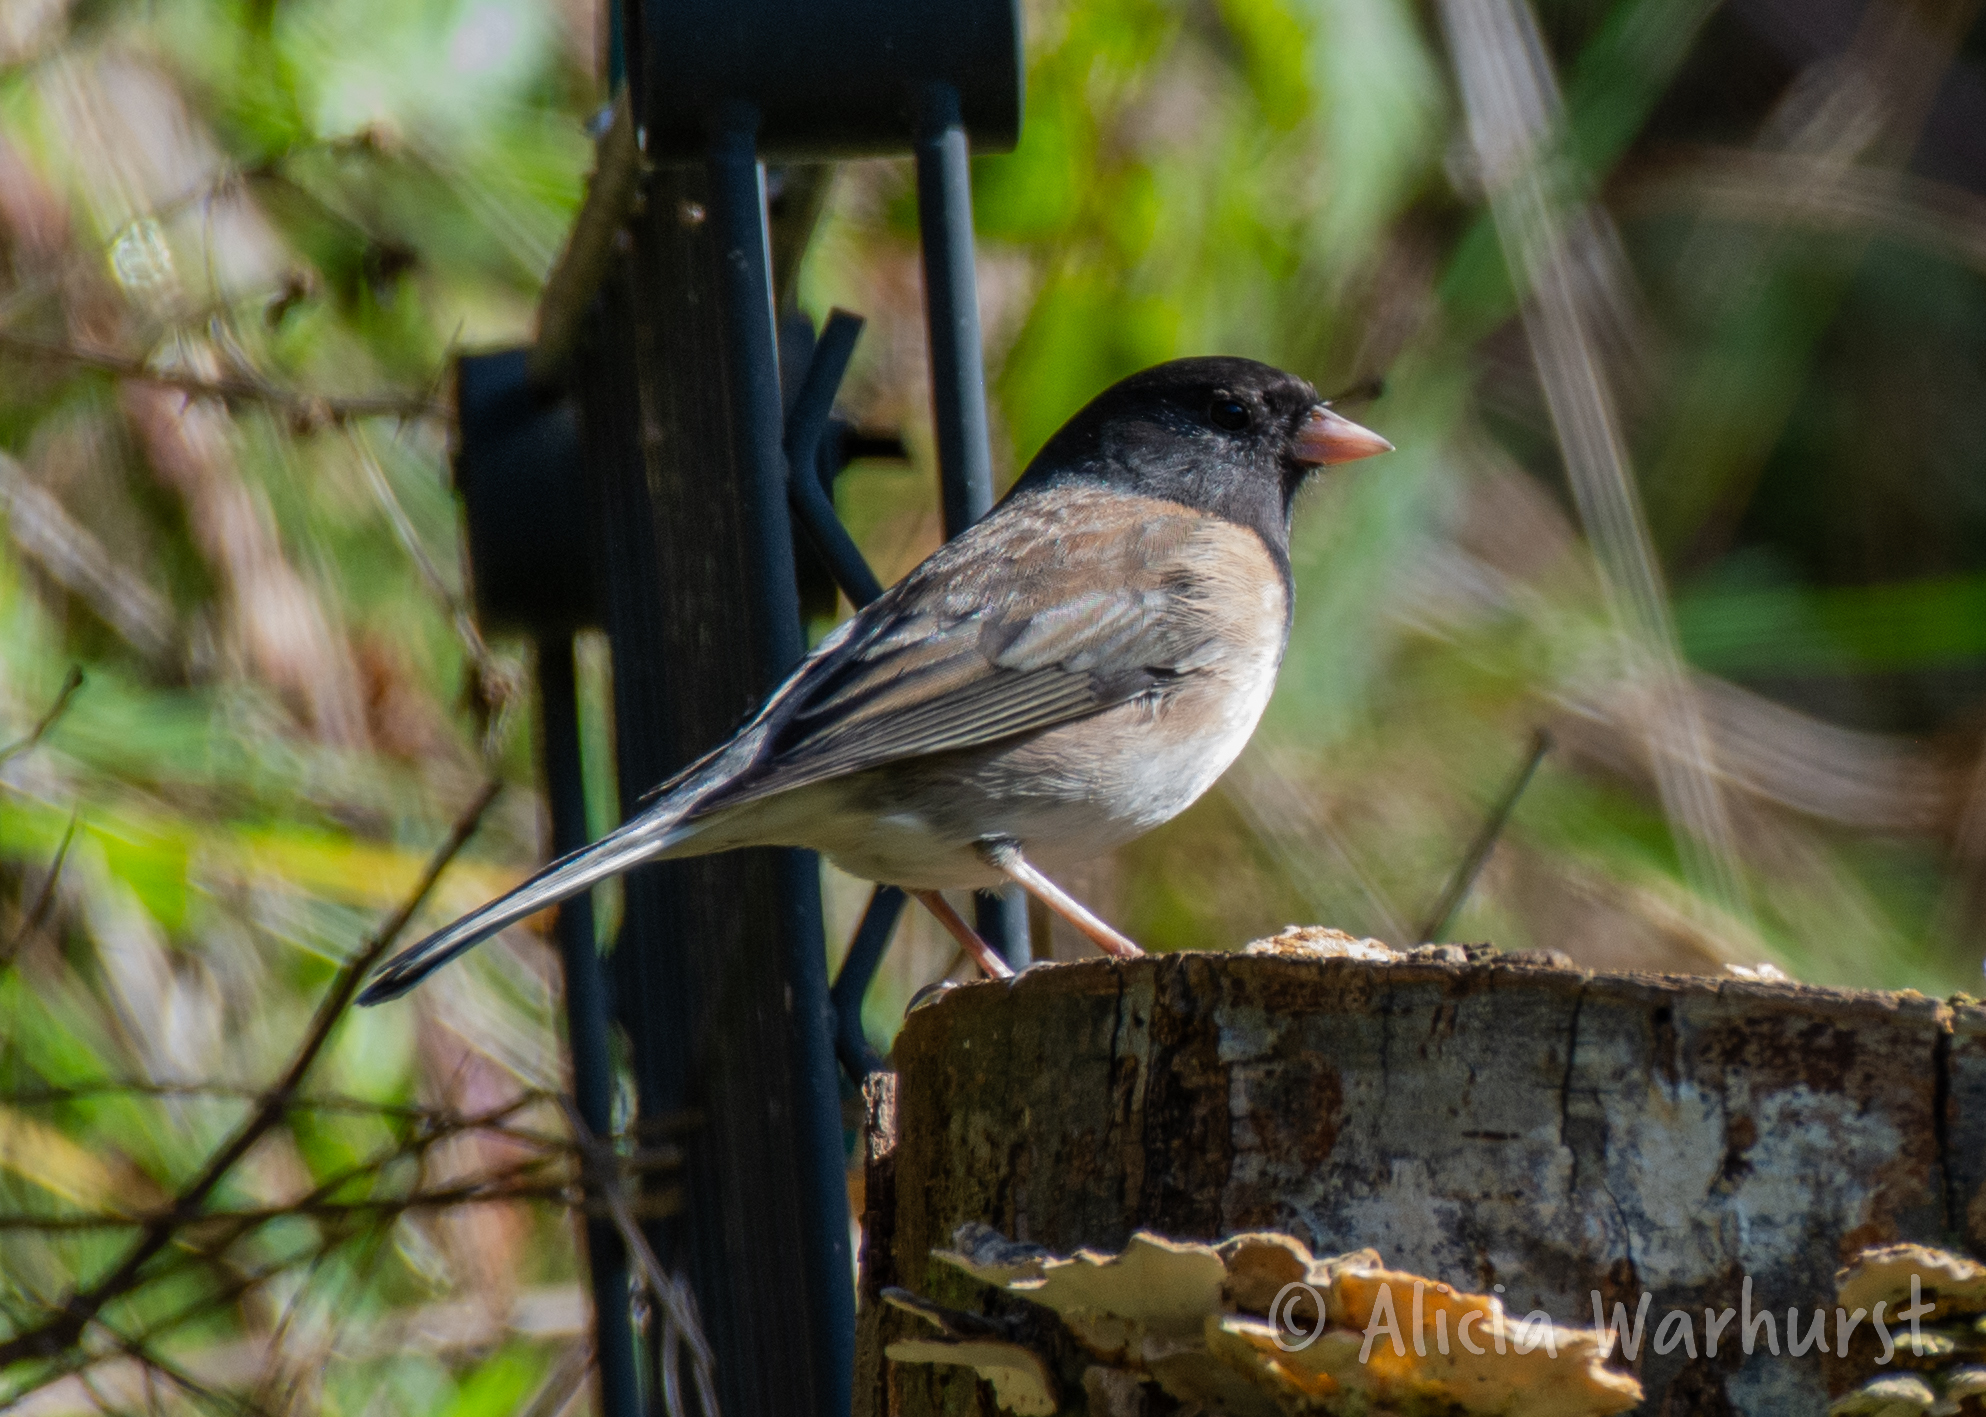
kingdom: Animalia
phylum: Chordata
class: Aves
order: Passeriformes
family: Passerellidae
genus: Junco
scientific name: Junco hyemalis
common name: Dark-eyed junco
